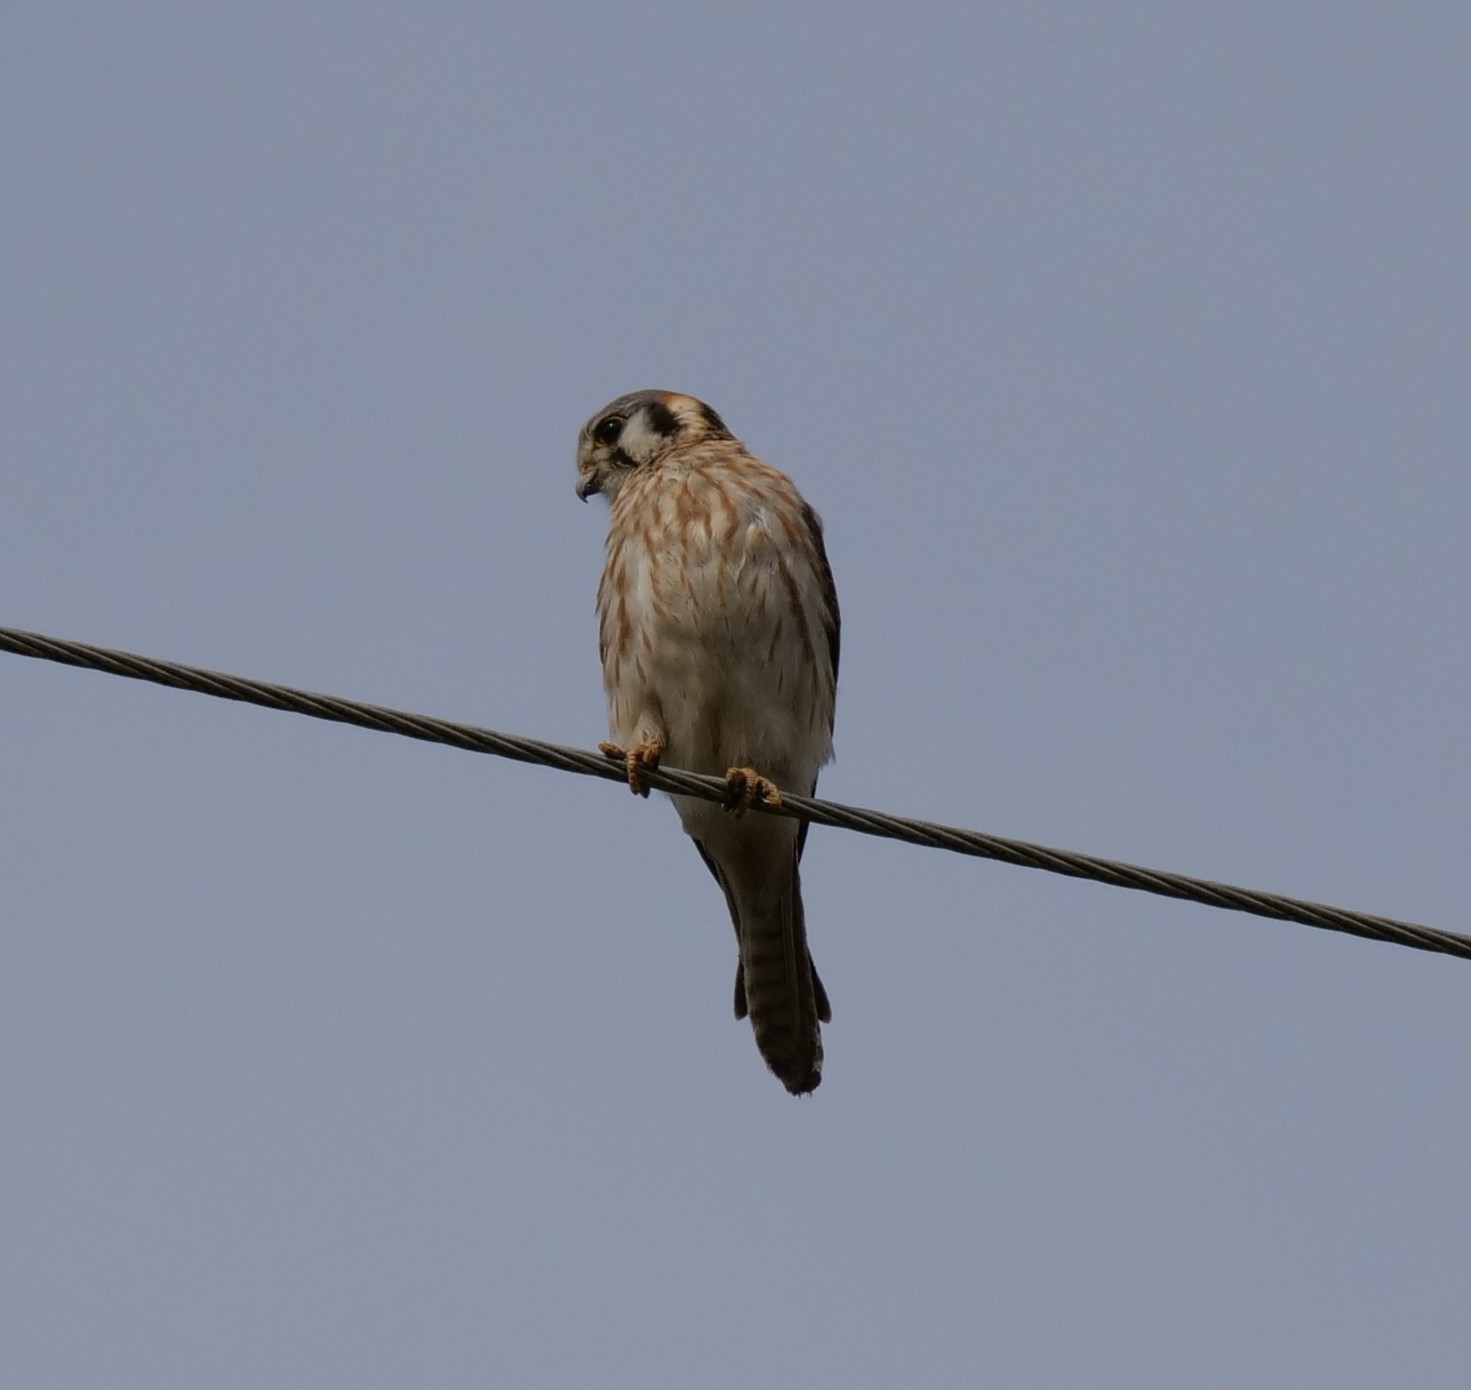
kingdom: Animalia
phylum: Chordata
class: Aves
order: Falconiformes
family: Falconidae
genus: Falco
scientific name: Falco sparverius
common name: American kestrel
